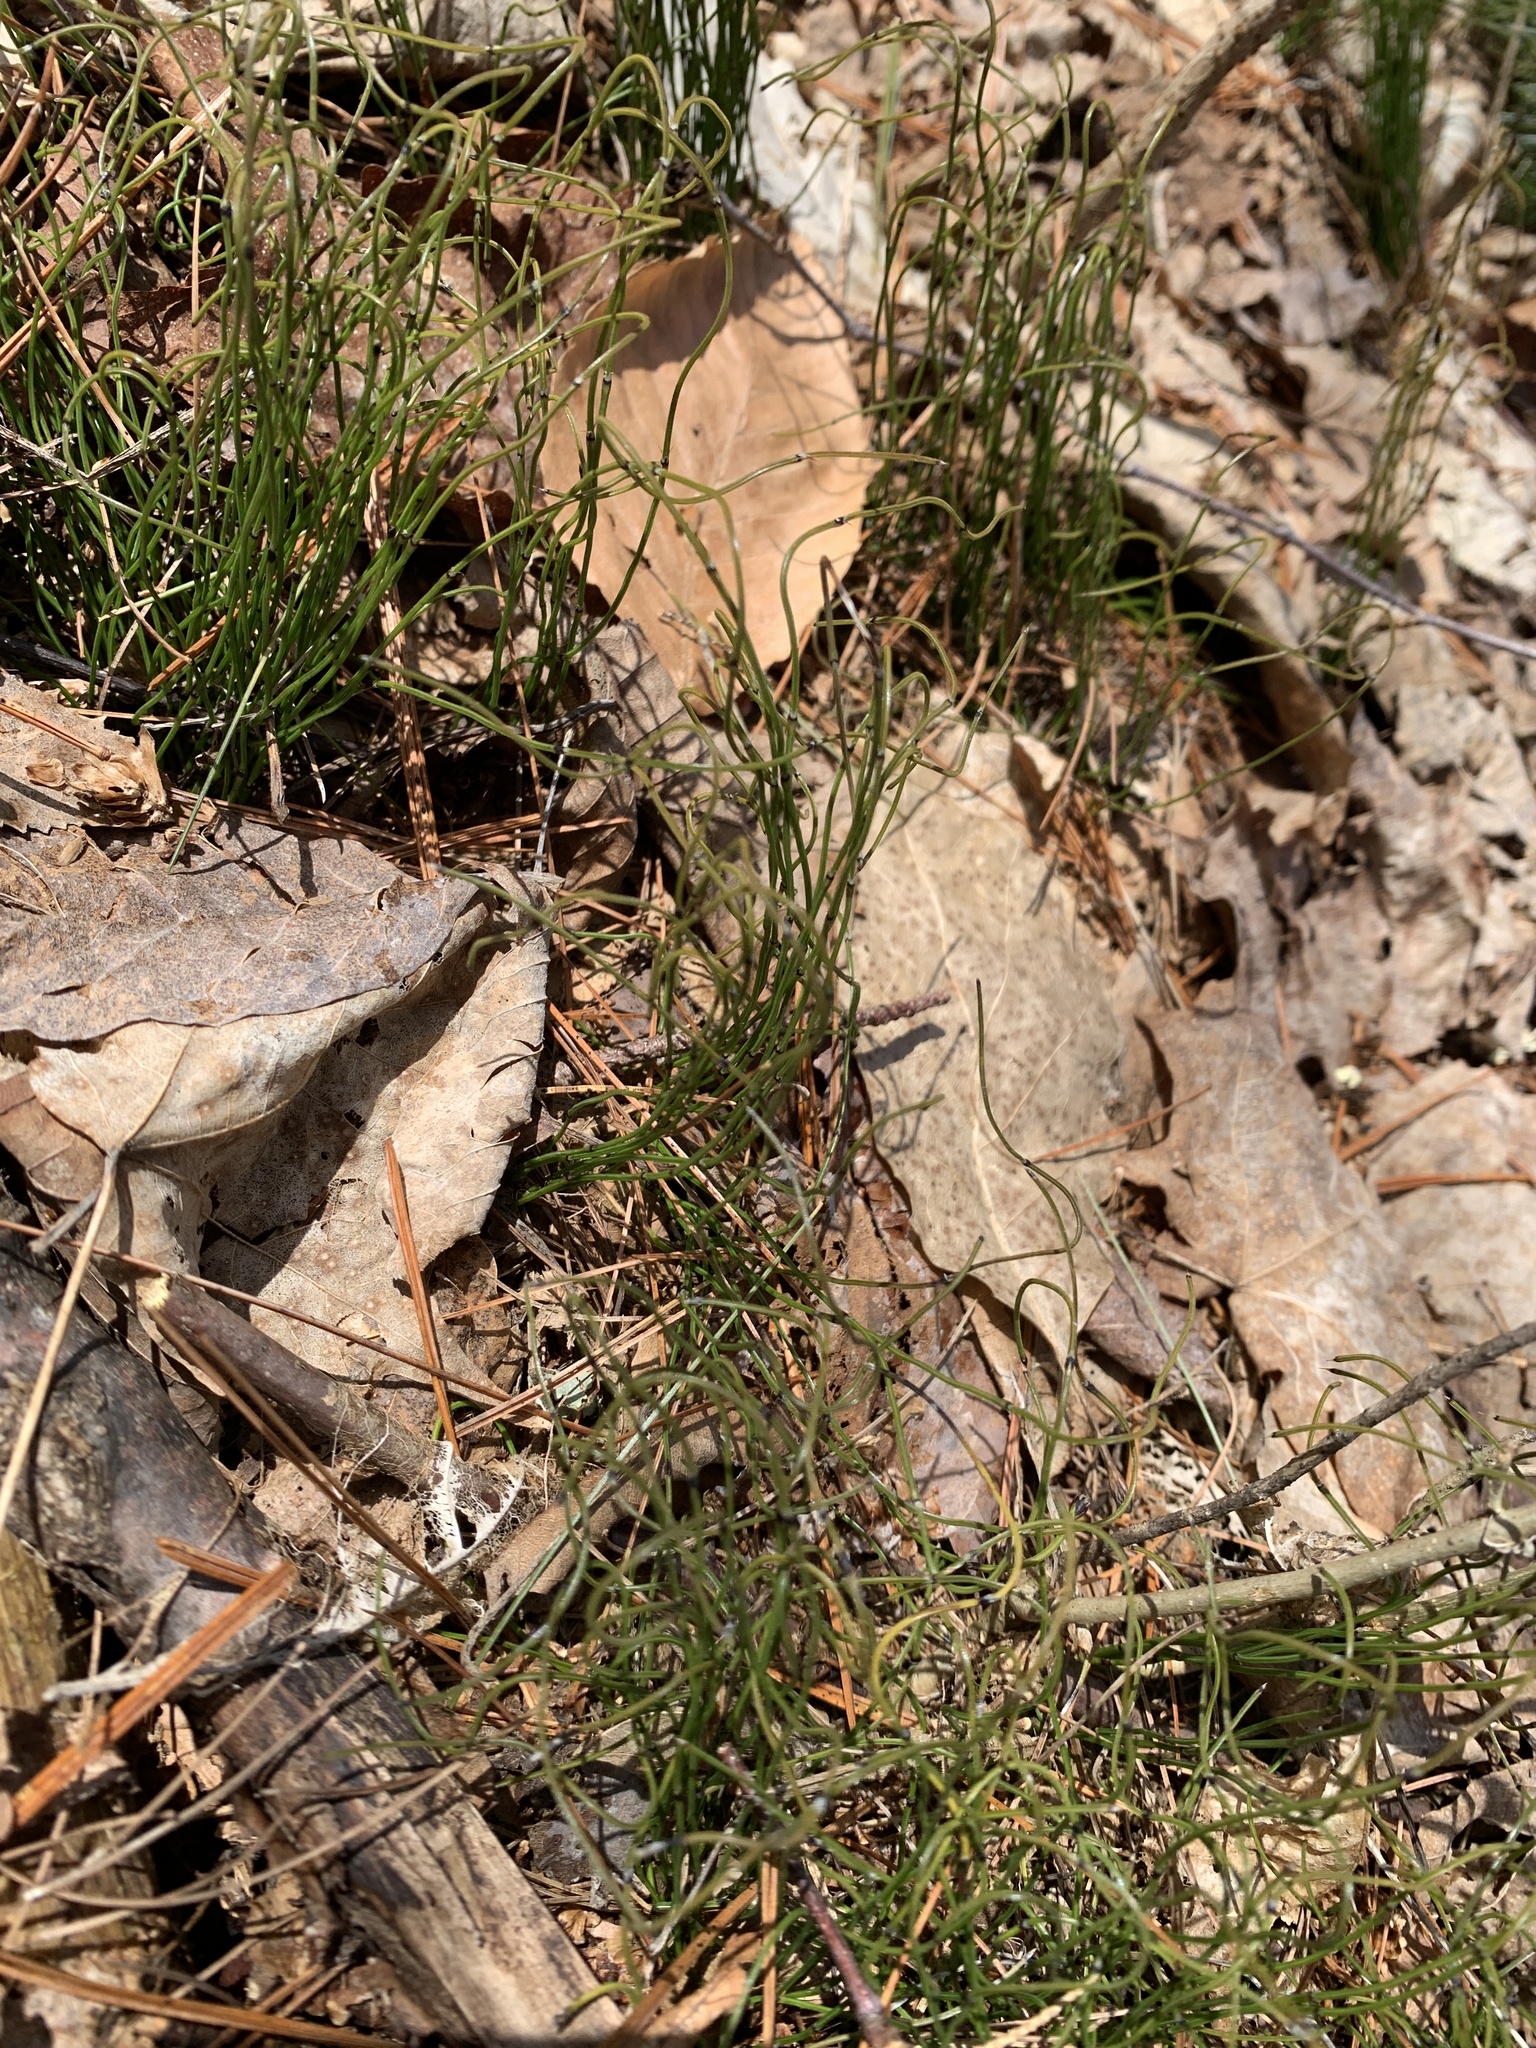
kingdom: Plantae
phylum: Tracheophyta
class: Polypodiopsida
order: Equisetales
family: Equisetaceae
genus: Equisetum
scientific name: Equisetum scirpoides
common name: Delicate horsetail
